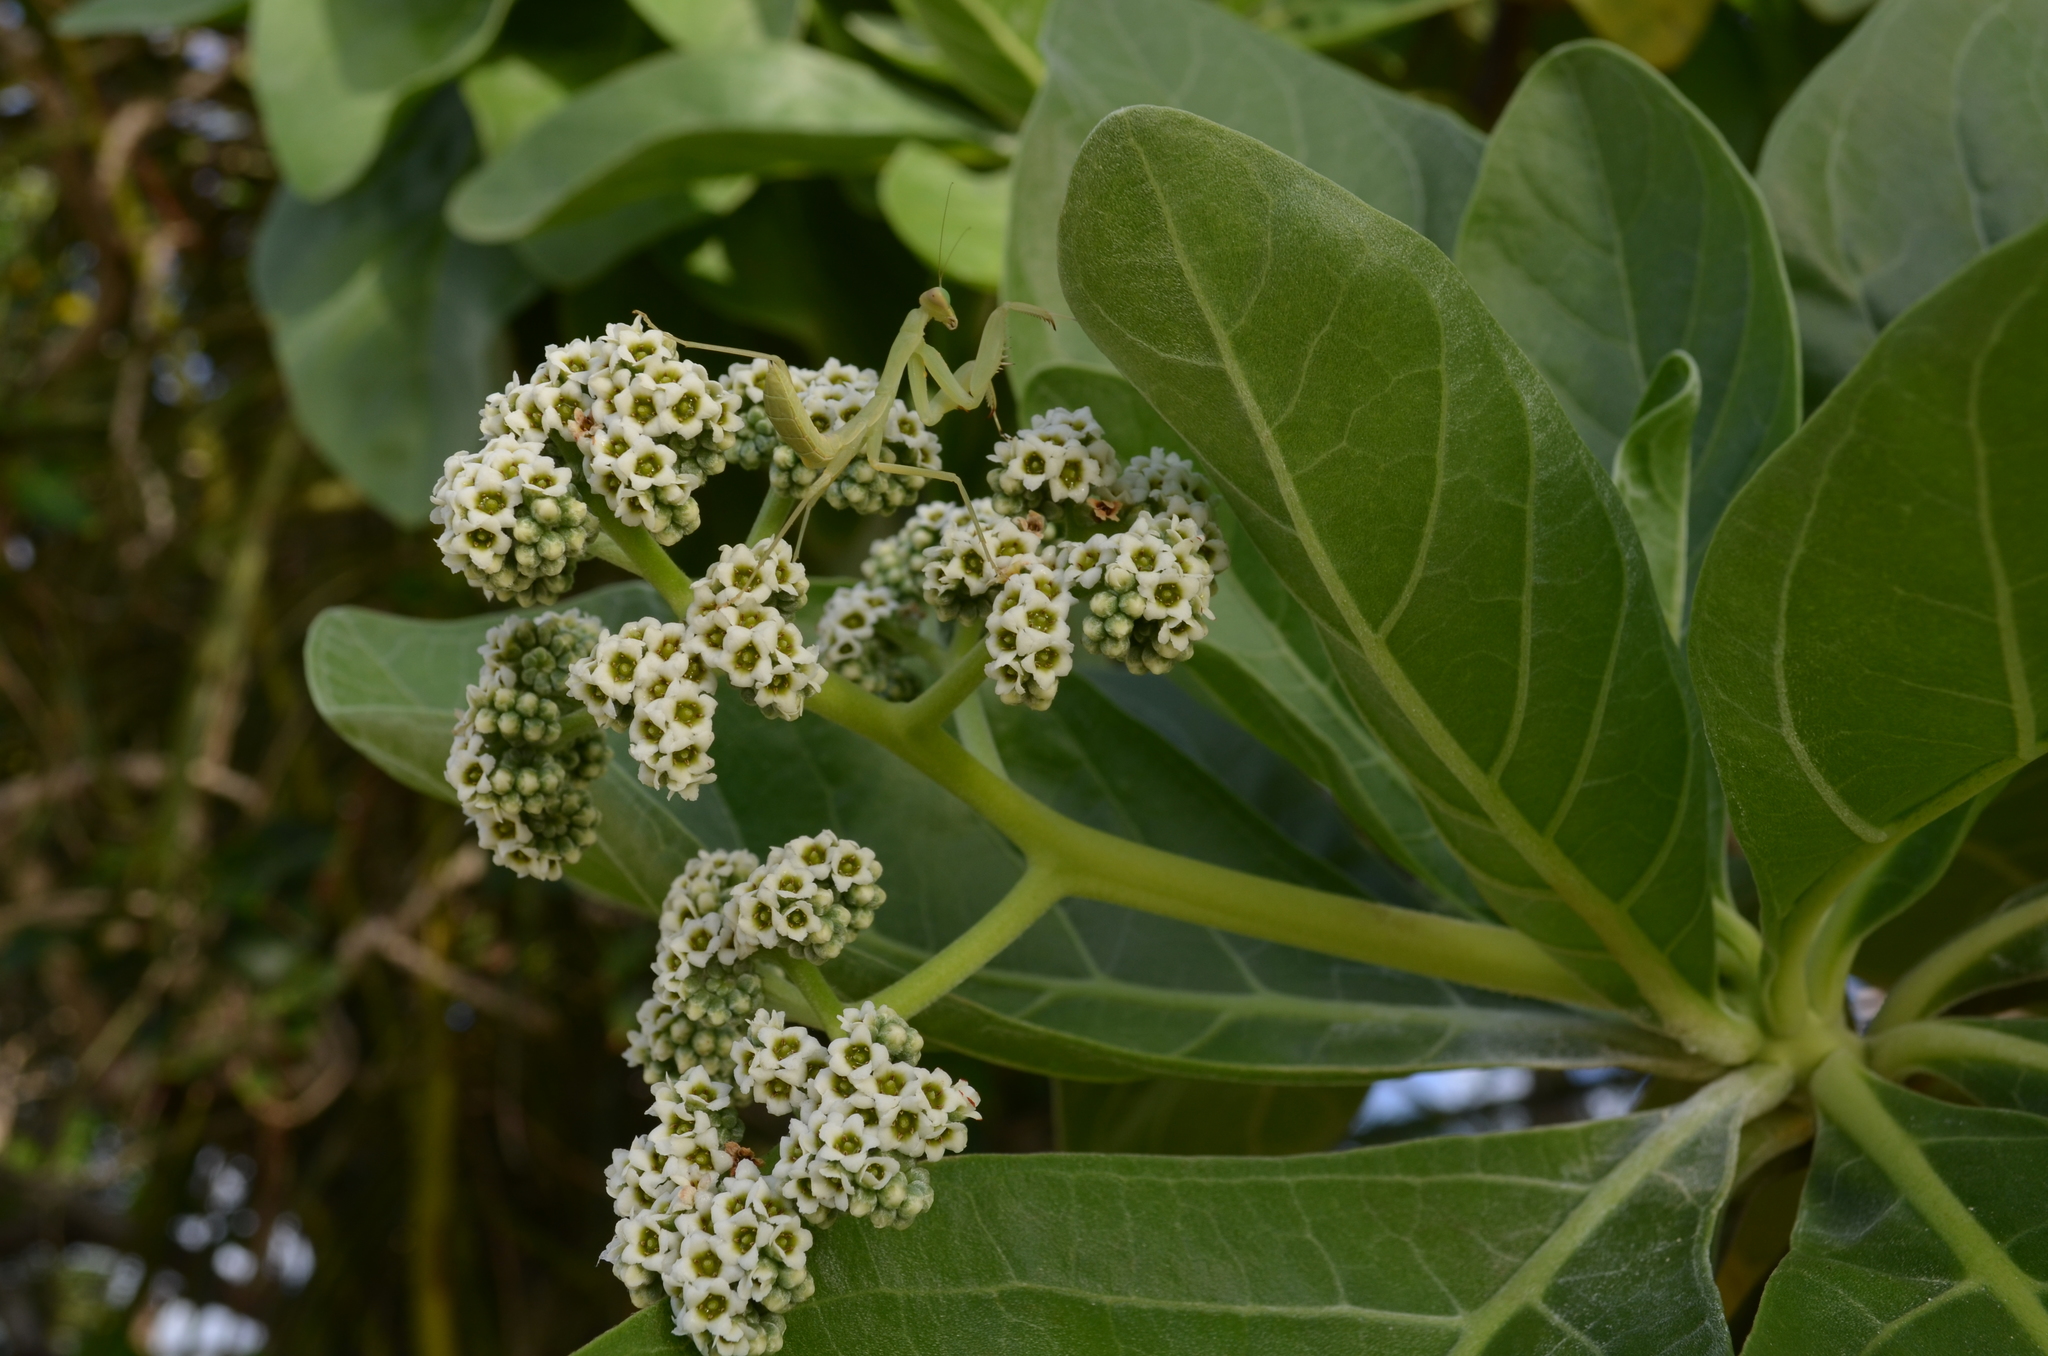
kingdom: Animalia
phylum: Arthropoda
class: Insecta
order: Mantodea
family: Mantidae
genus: Hierodula
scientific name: Hierodula patellifera
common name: Asian mantis
